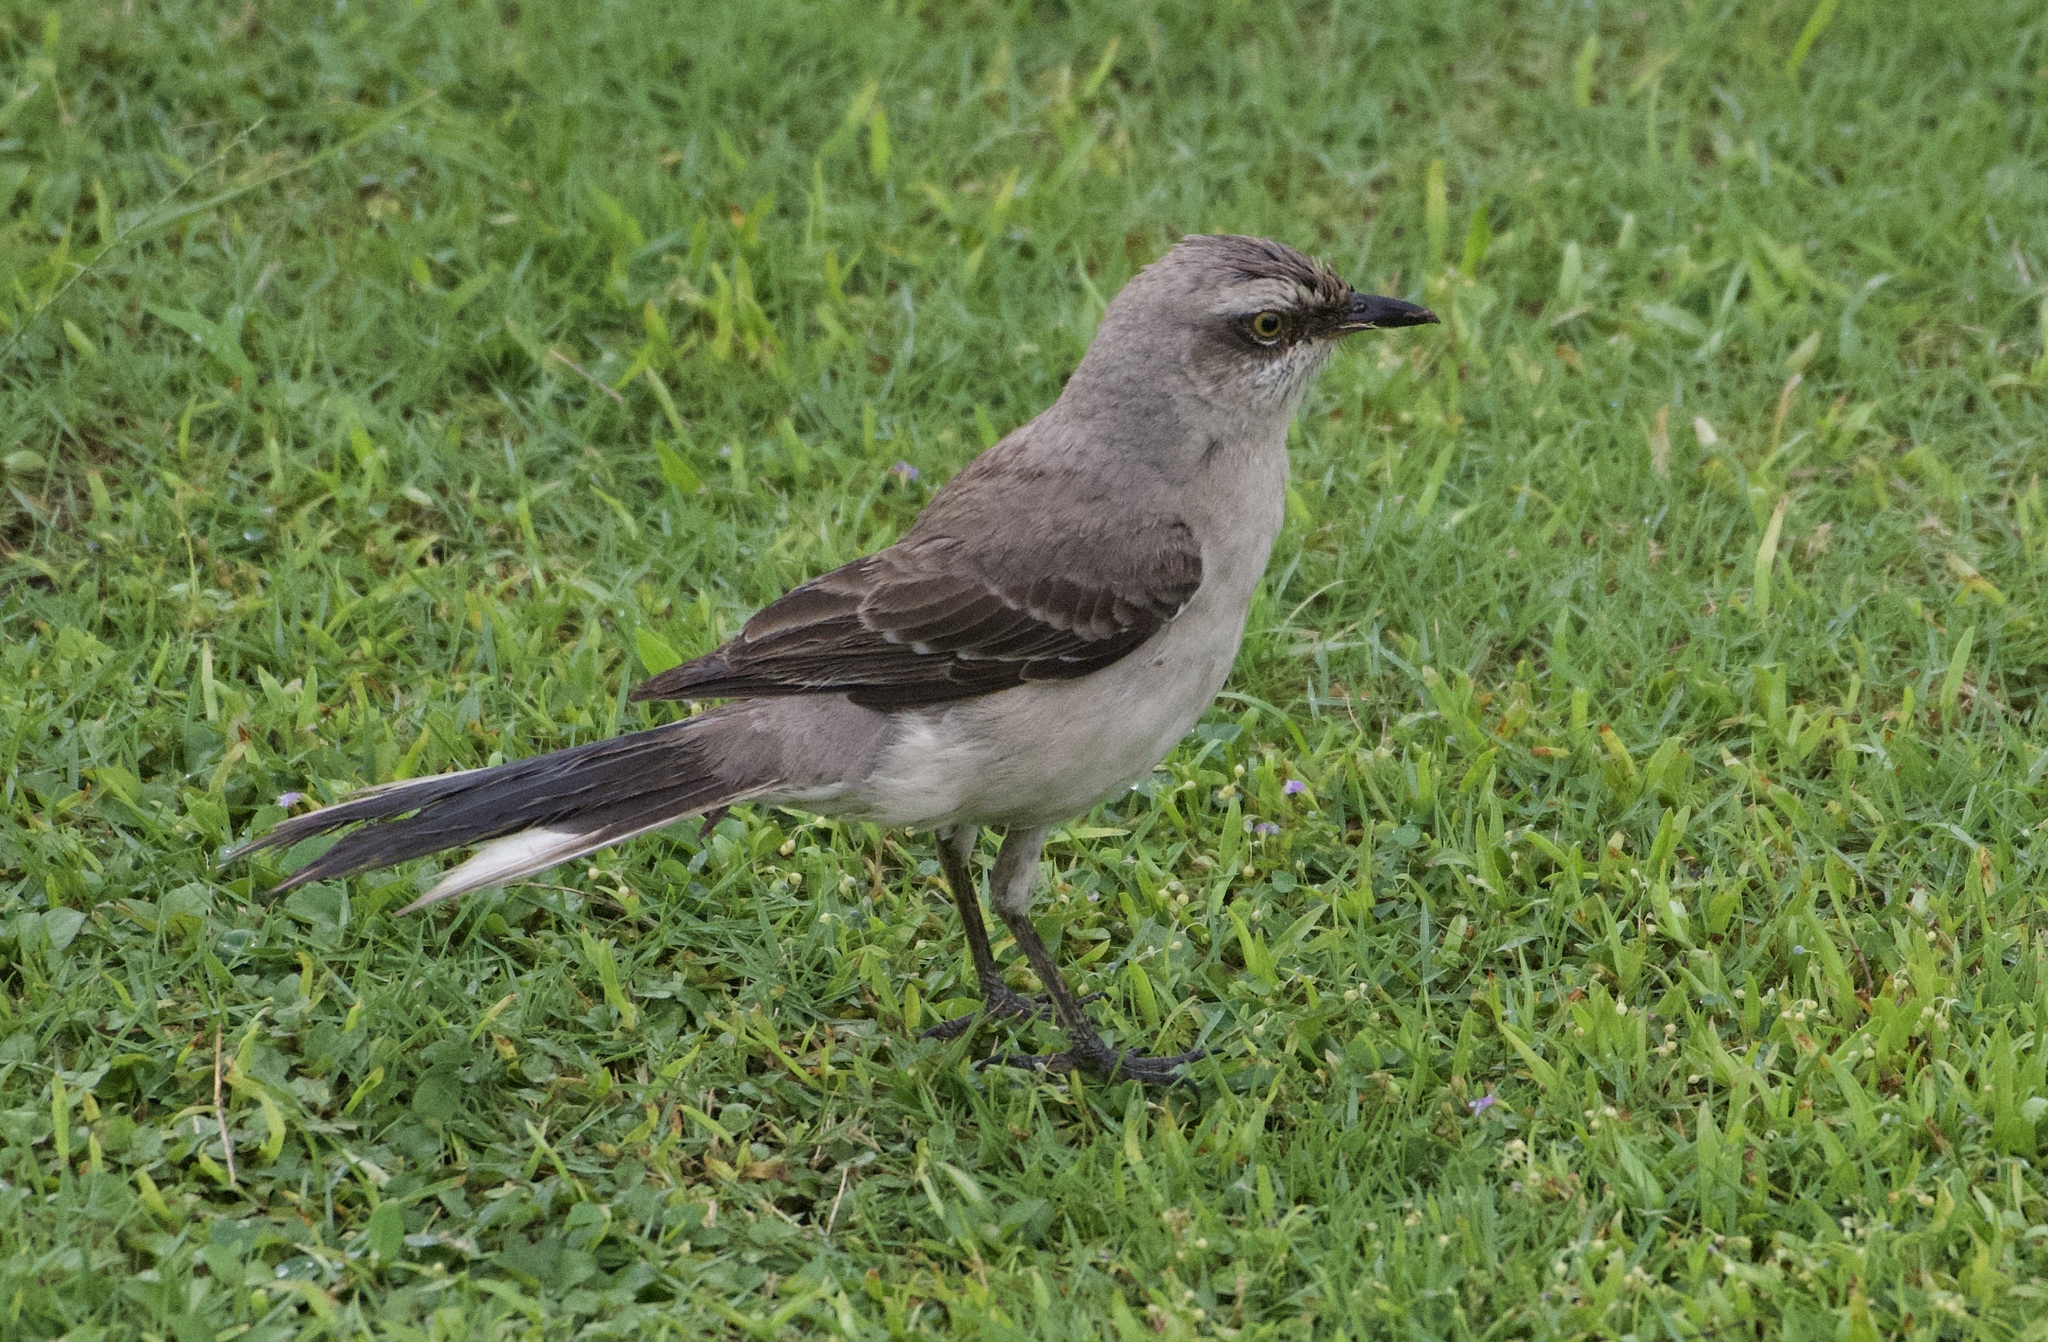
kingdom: Animalia
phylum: Chordata
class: Aves
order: Passeriformes
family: Mimidae
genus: Mimus
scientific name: Mimus gilvus
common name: Tropical mockingbird
